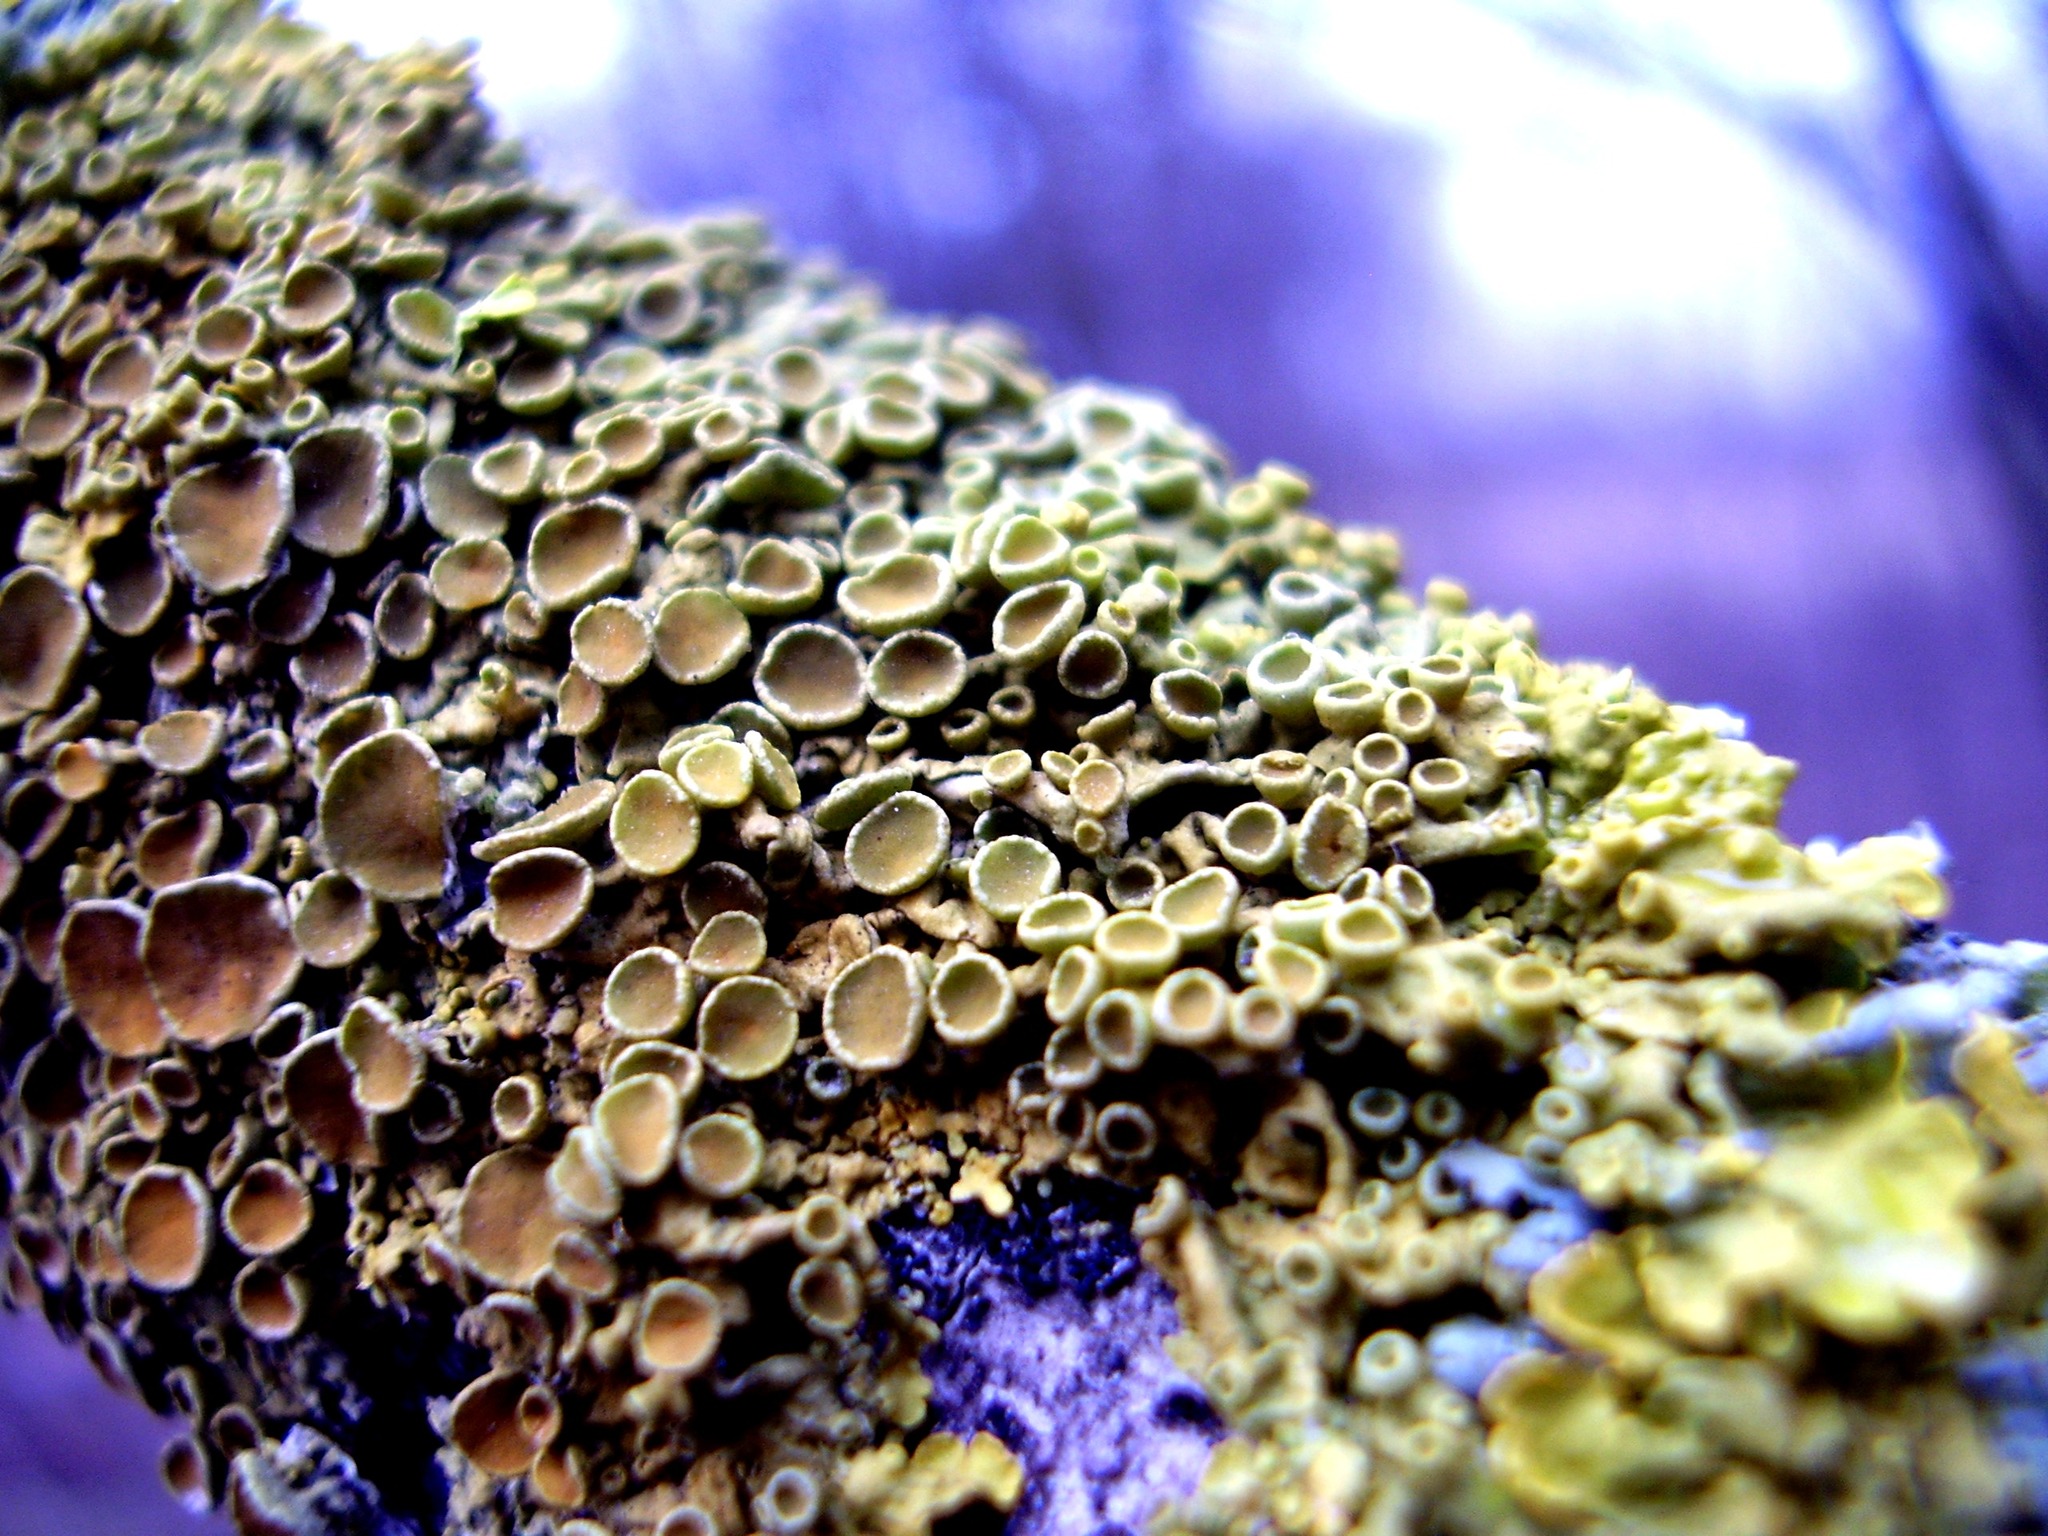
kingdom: Fungi
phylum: Ascomycota
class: Lecanoromycetes
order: Teloschistales
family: Teloschistaceae
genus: Xanthoria
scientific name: Xanthoria parietina
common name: Common orange lichen
